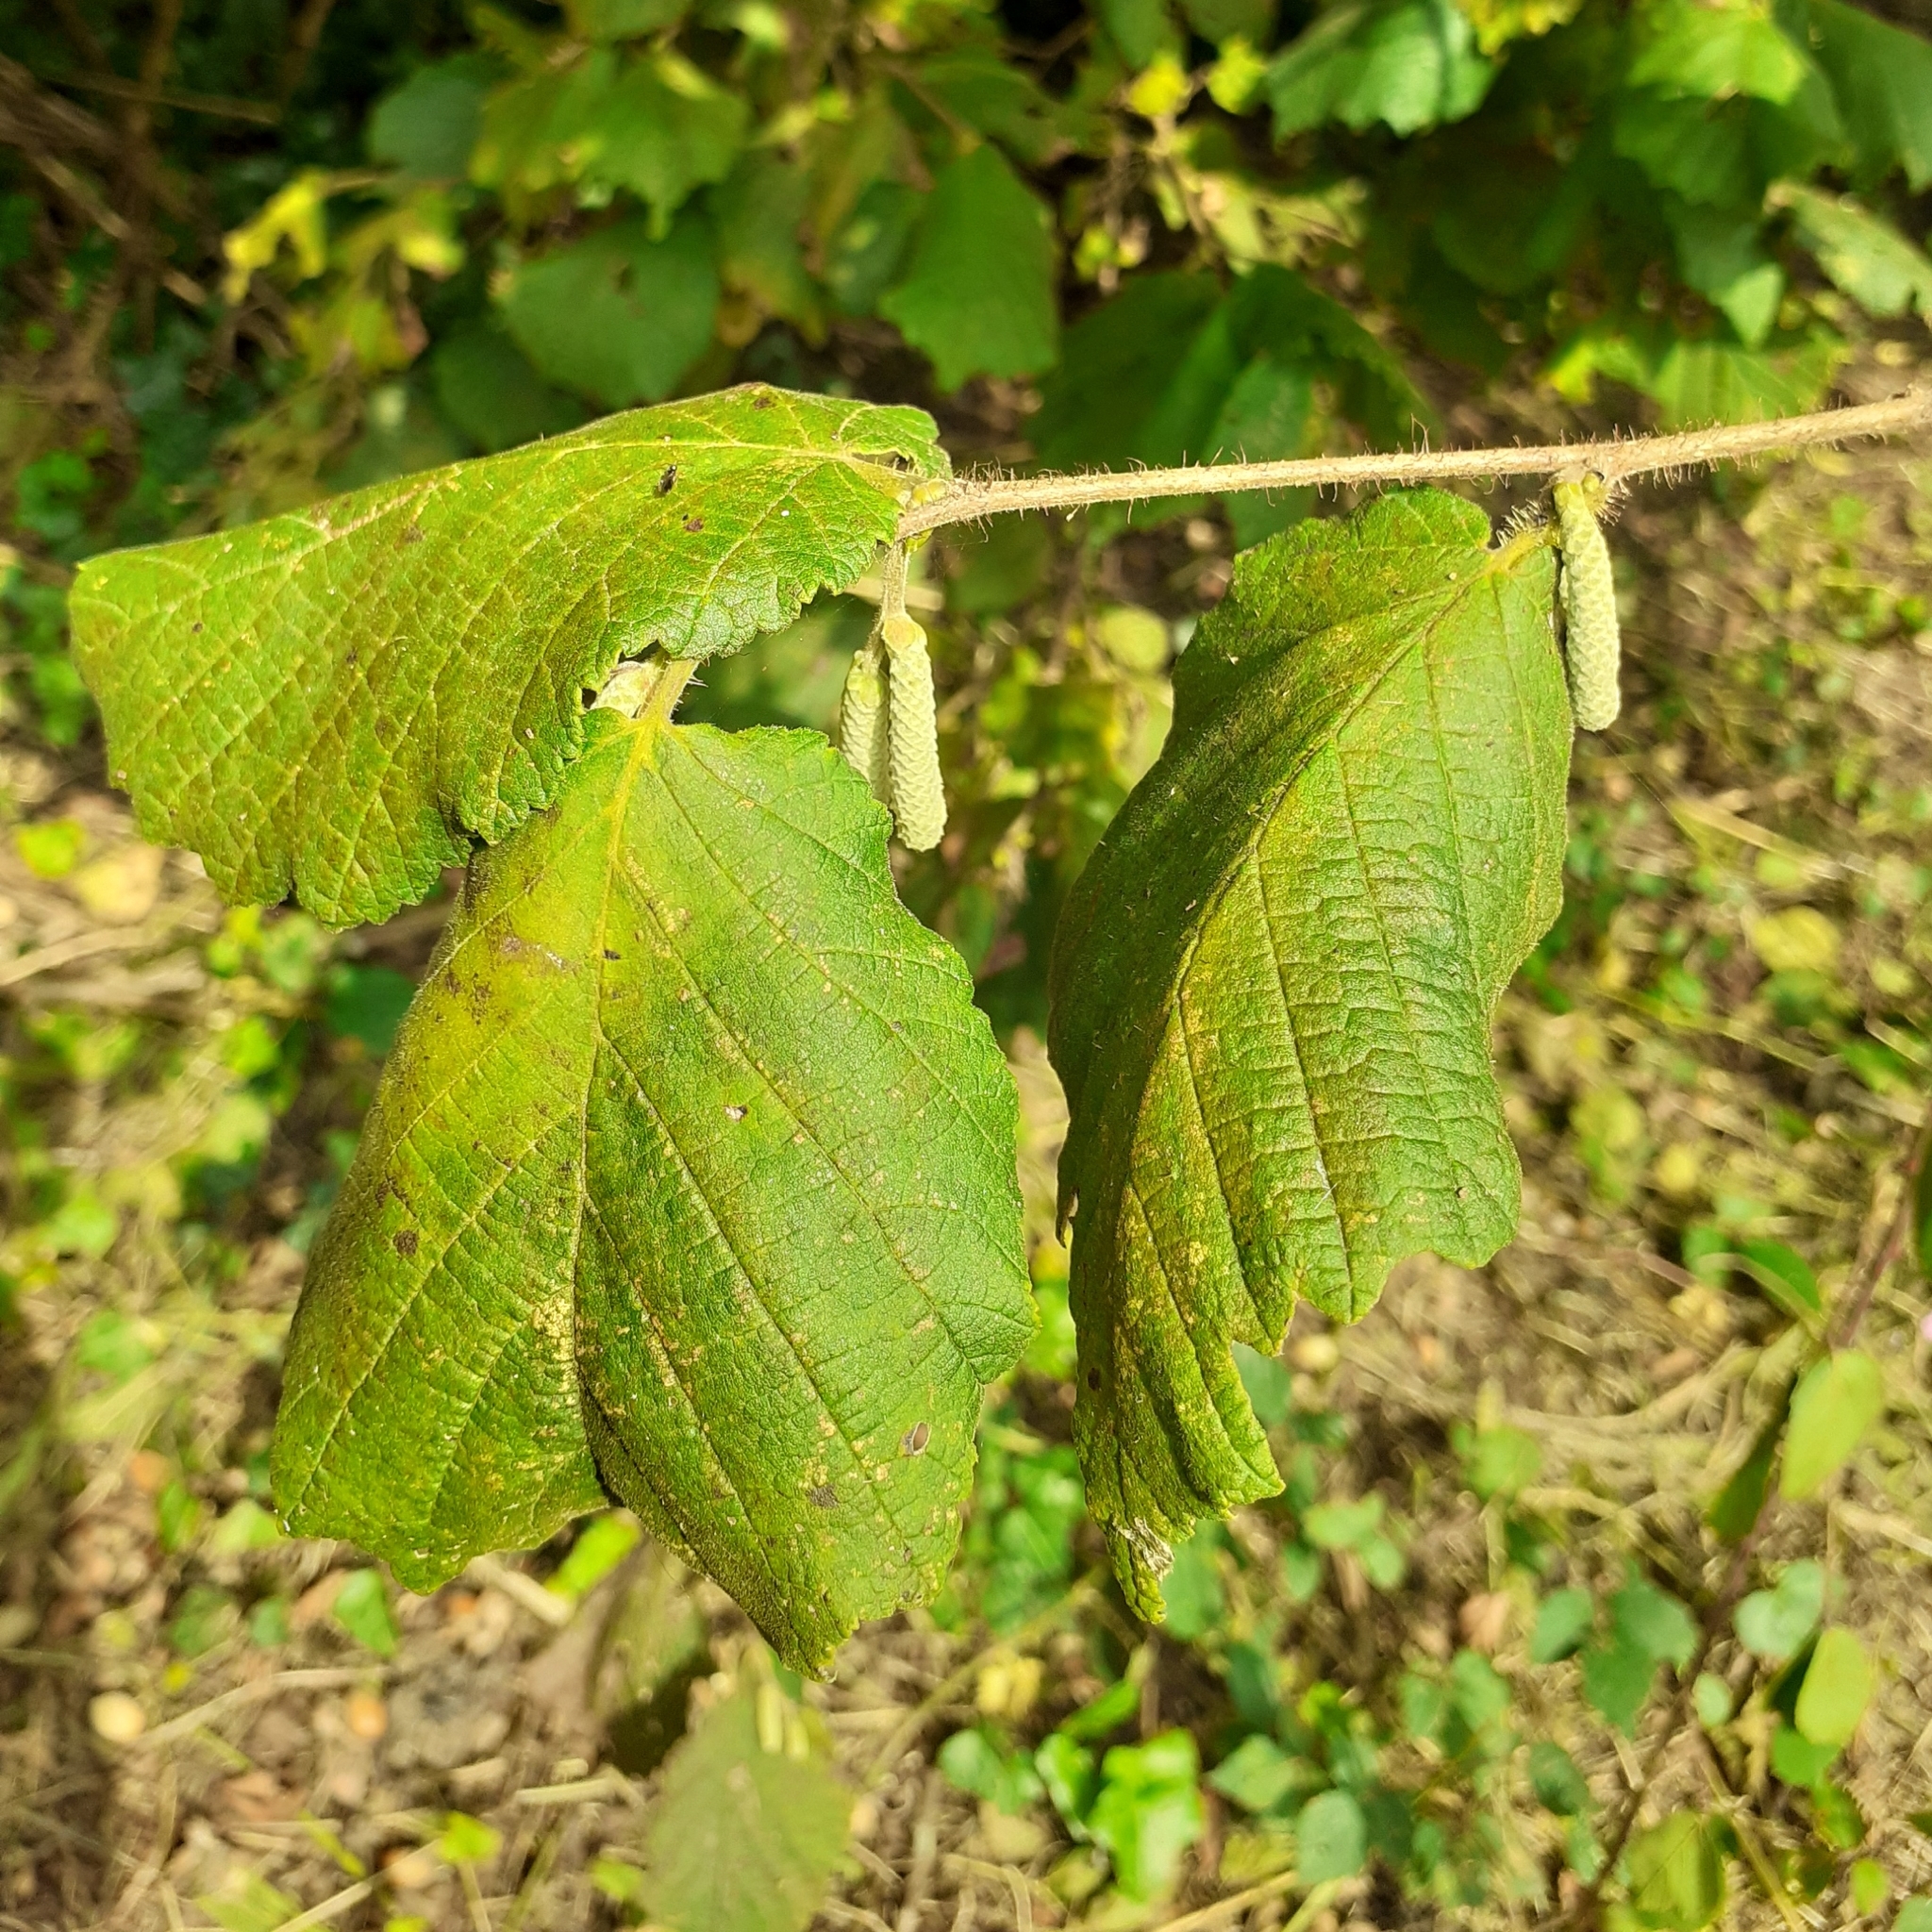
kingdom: Plantae
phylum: Tracheophyta
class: Magnoliopsida
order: Fagales
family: Betulaceae
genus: Corylus
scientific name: Corylus avellana
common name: European hazel
